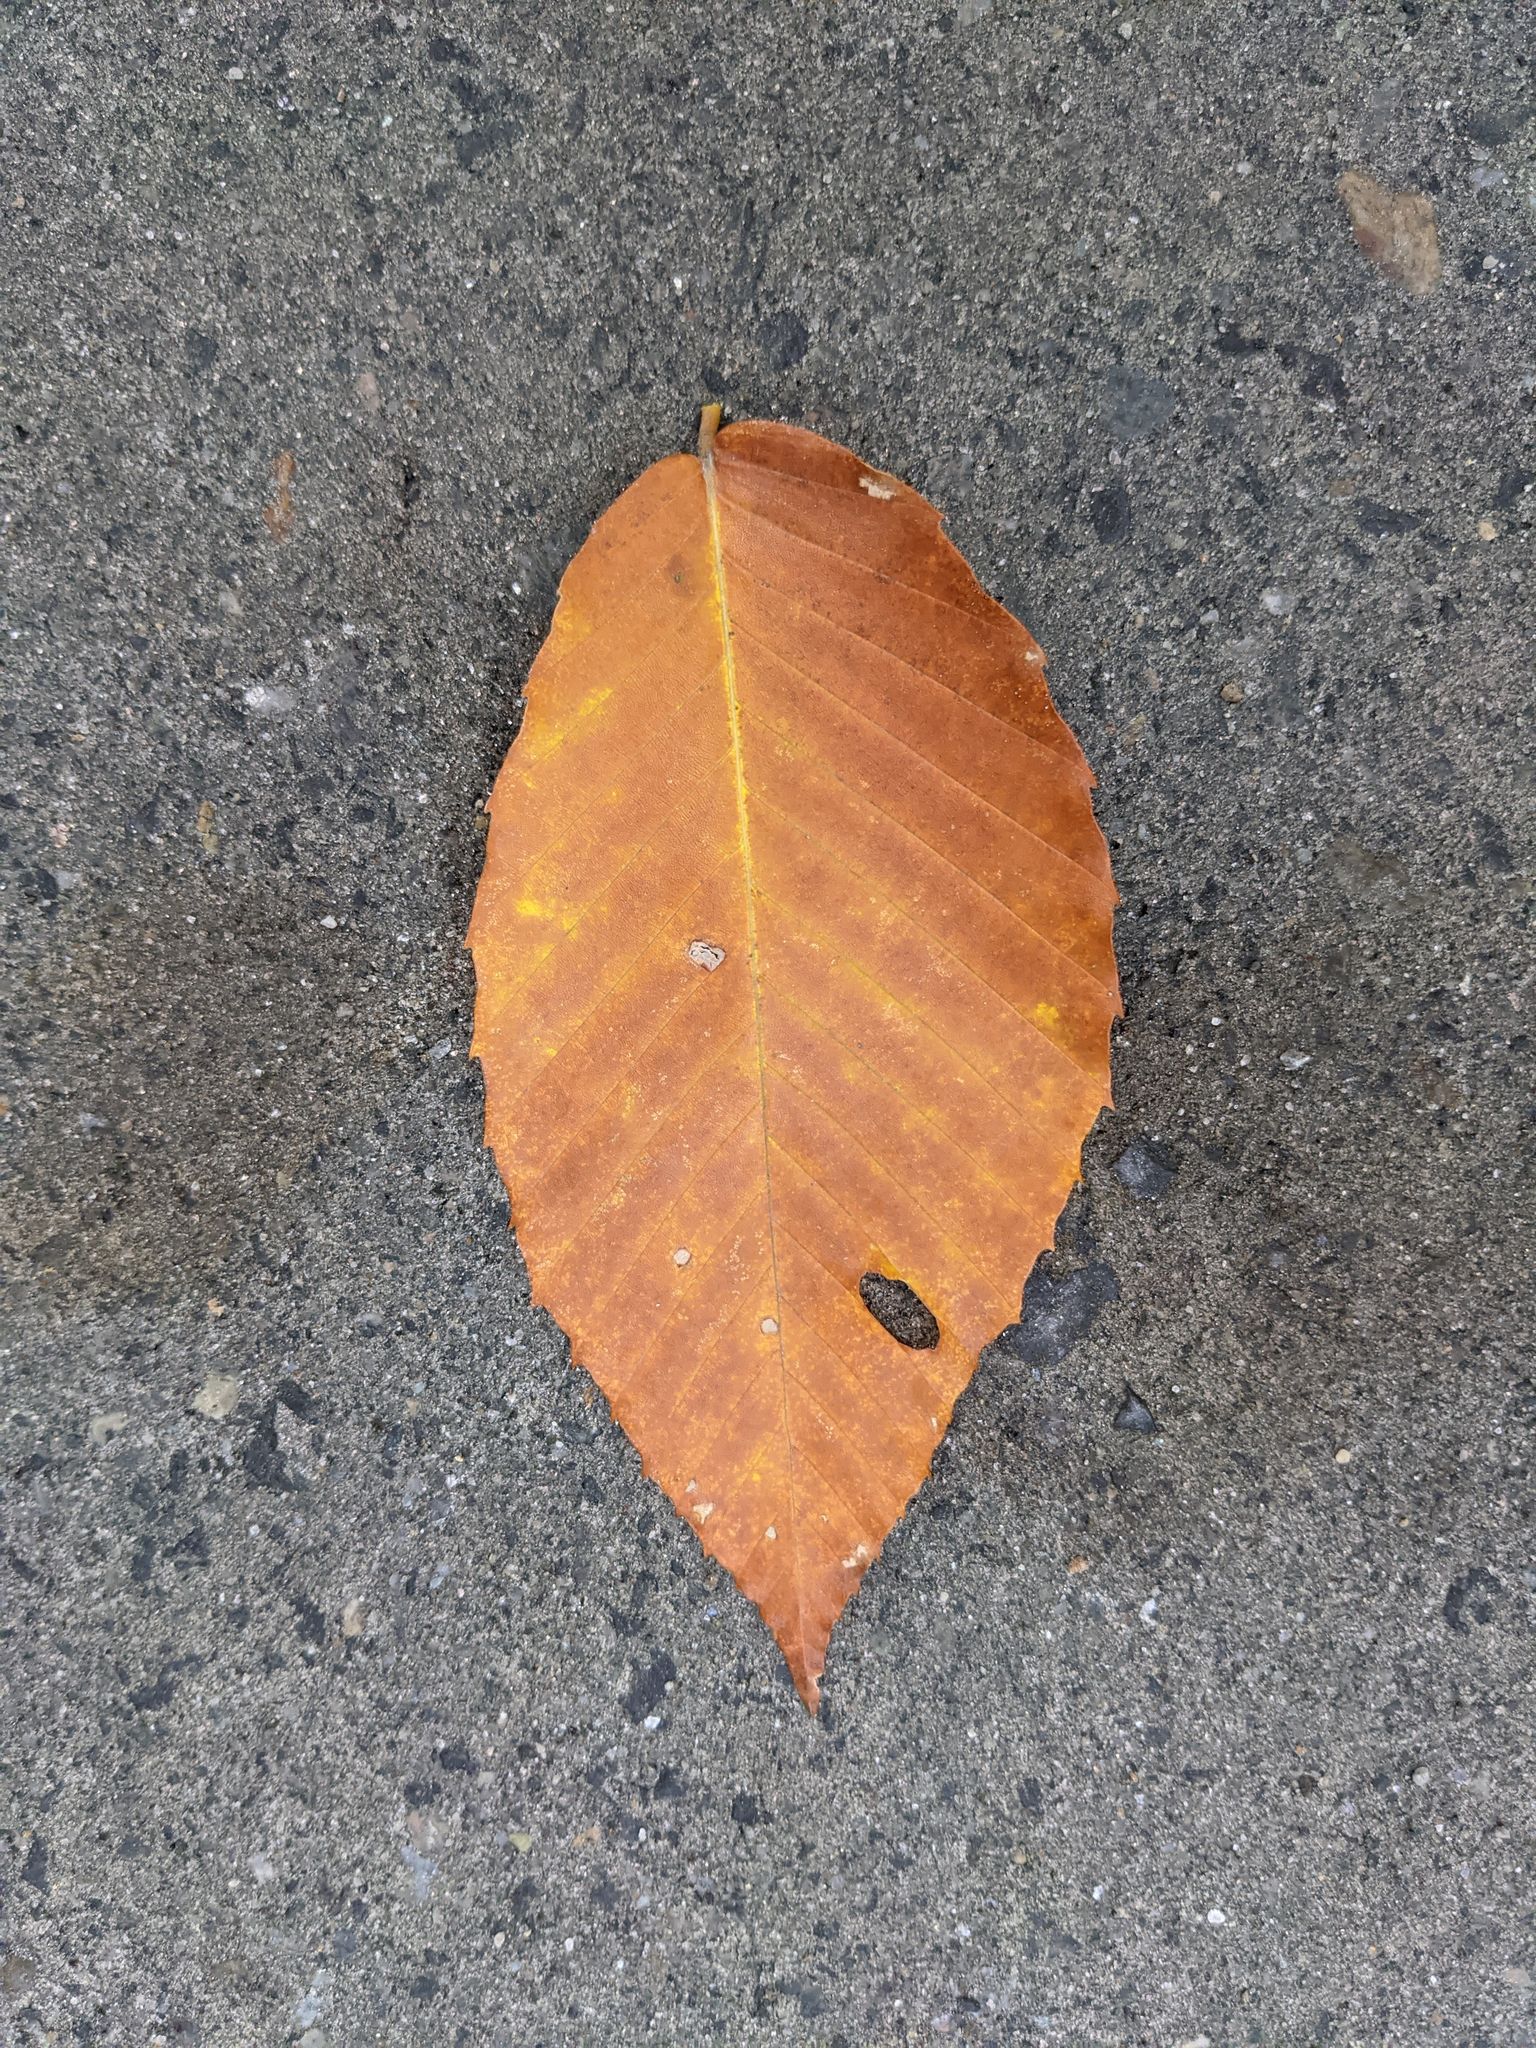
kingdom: Plantae
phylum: Tracheophyta
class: Magnoliopsida
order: Fagales
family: Fagaceae
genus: Fagus
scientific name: Fagus grandifolia
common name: American beech
